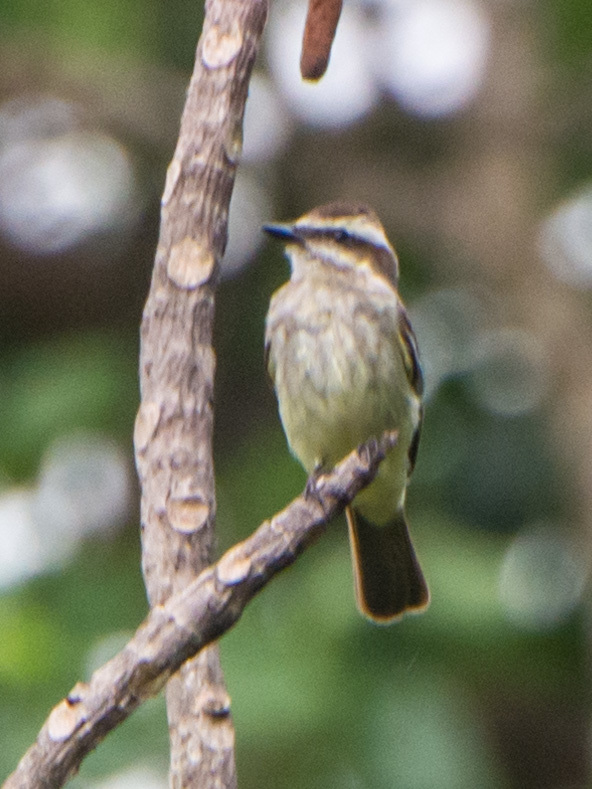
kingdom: Animalia
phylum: Chordata
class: Aves
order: Passeriformes
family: Tyrannidae
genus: Legatus
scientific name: Legatus leucophaius
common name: Piratic flycatcher
